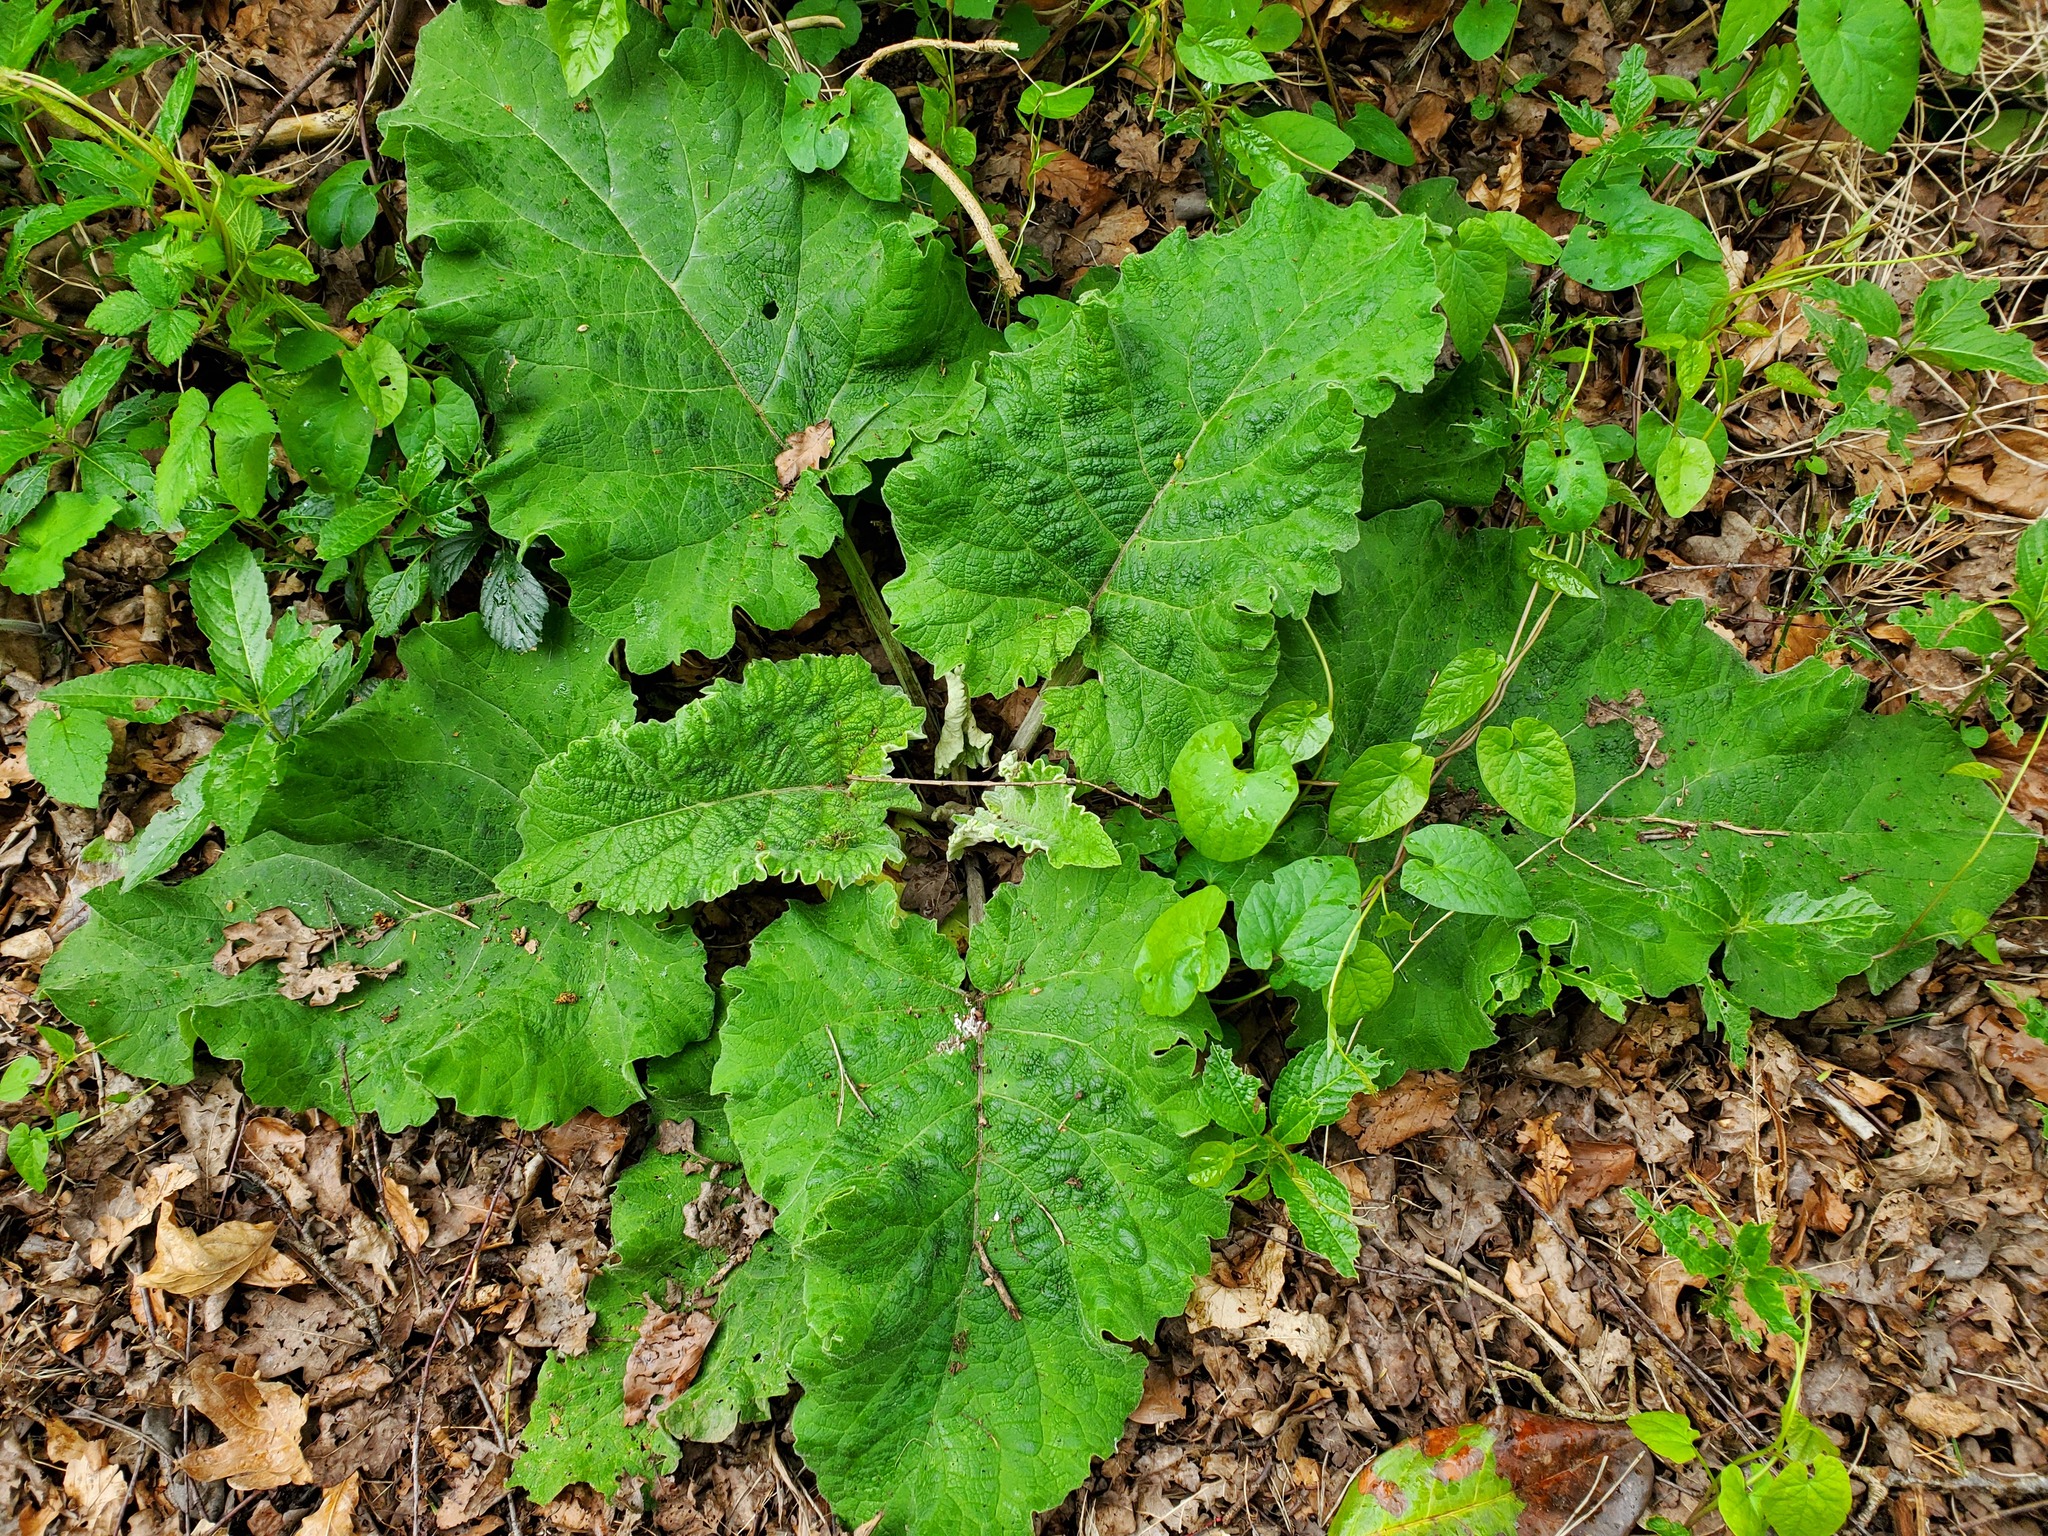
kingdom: Plantae
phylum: Tracheophyta
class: Magnoliopsida
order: Asterales
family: Asteraceae
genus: Arctium
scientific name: Arctium lappa
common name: Greater burdock
